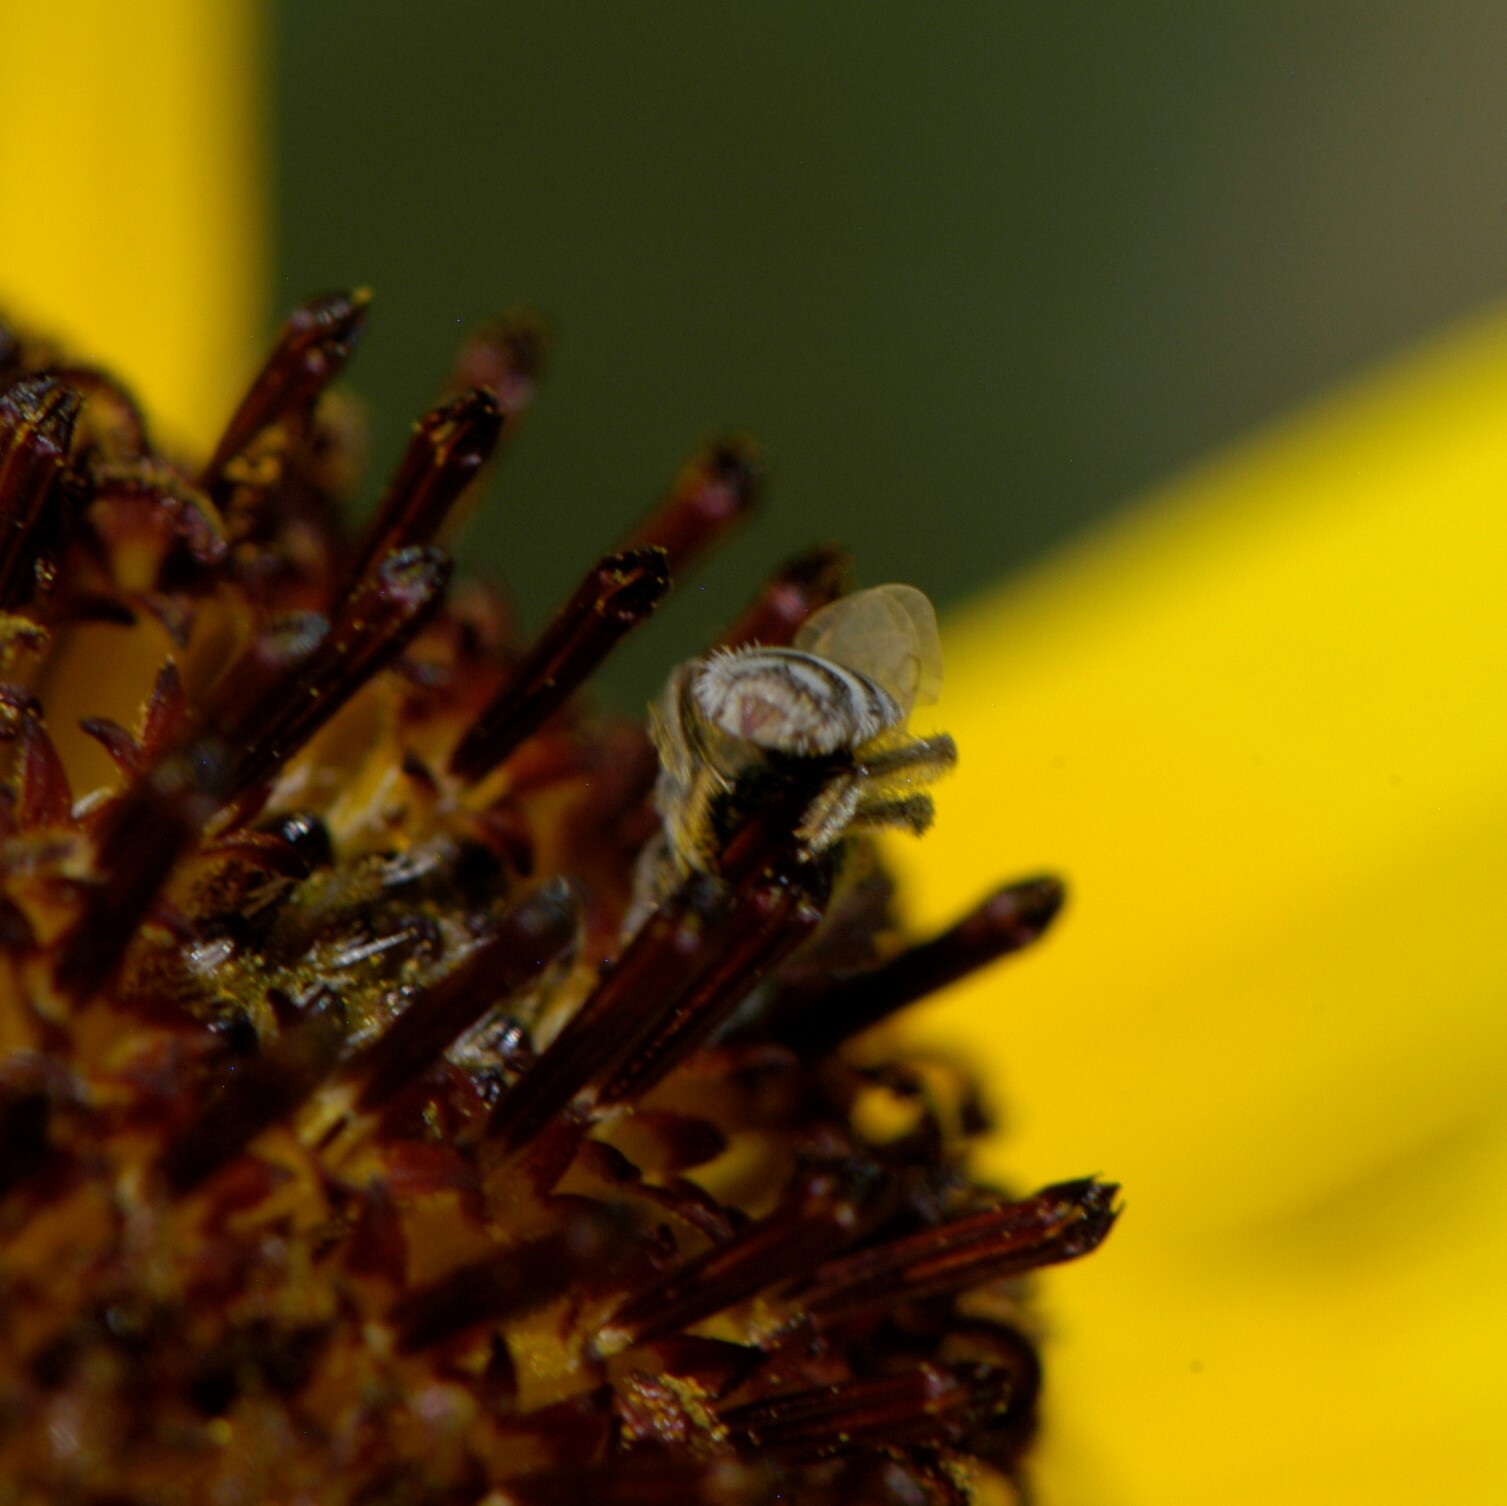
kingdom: Animalia
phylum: Arthropoda
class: Insecta
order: Hymenoptera
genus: Pentaperdita
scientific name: Pentaperdita
